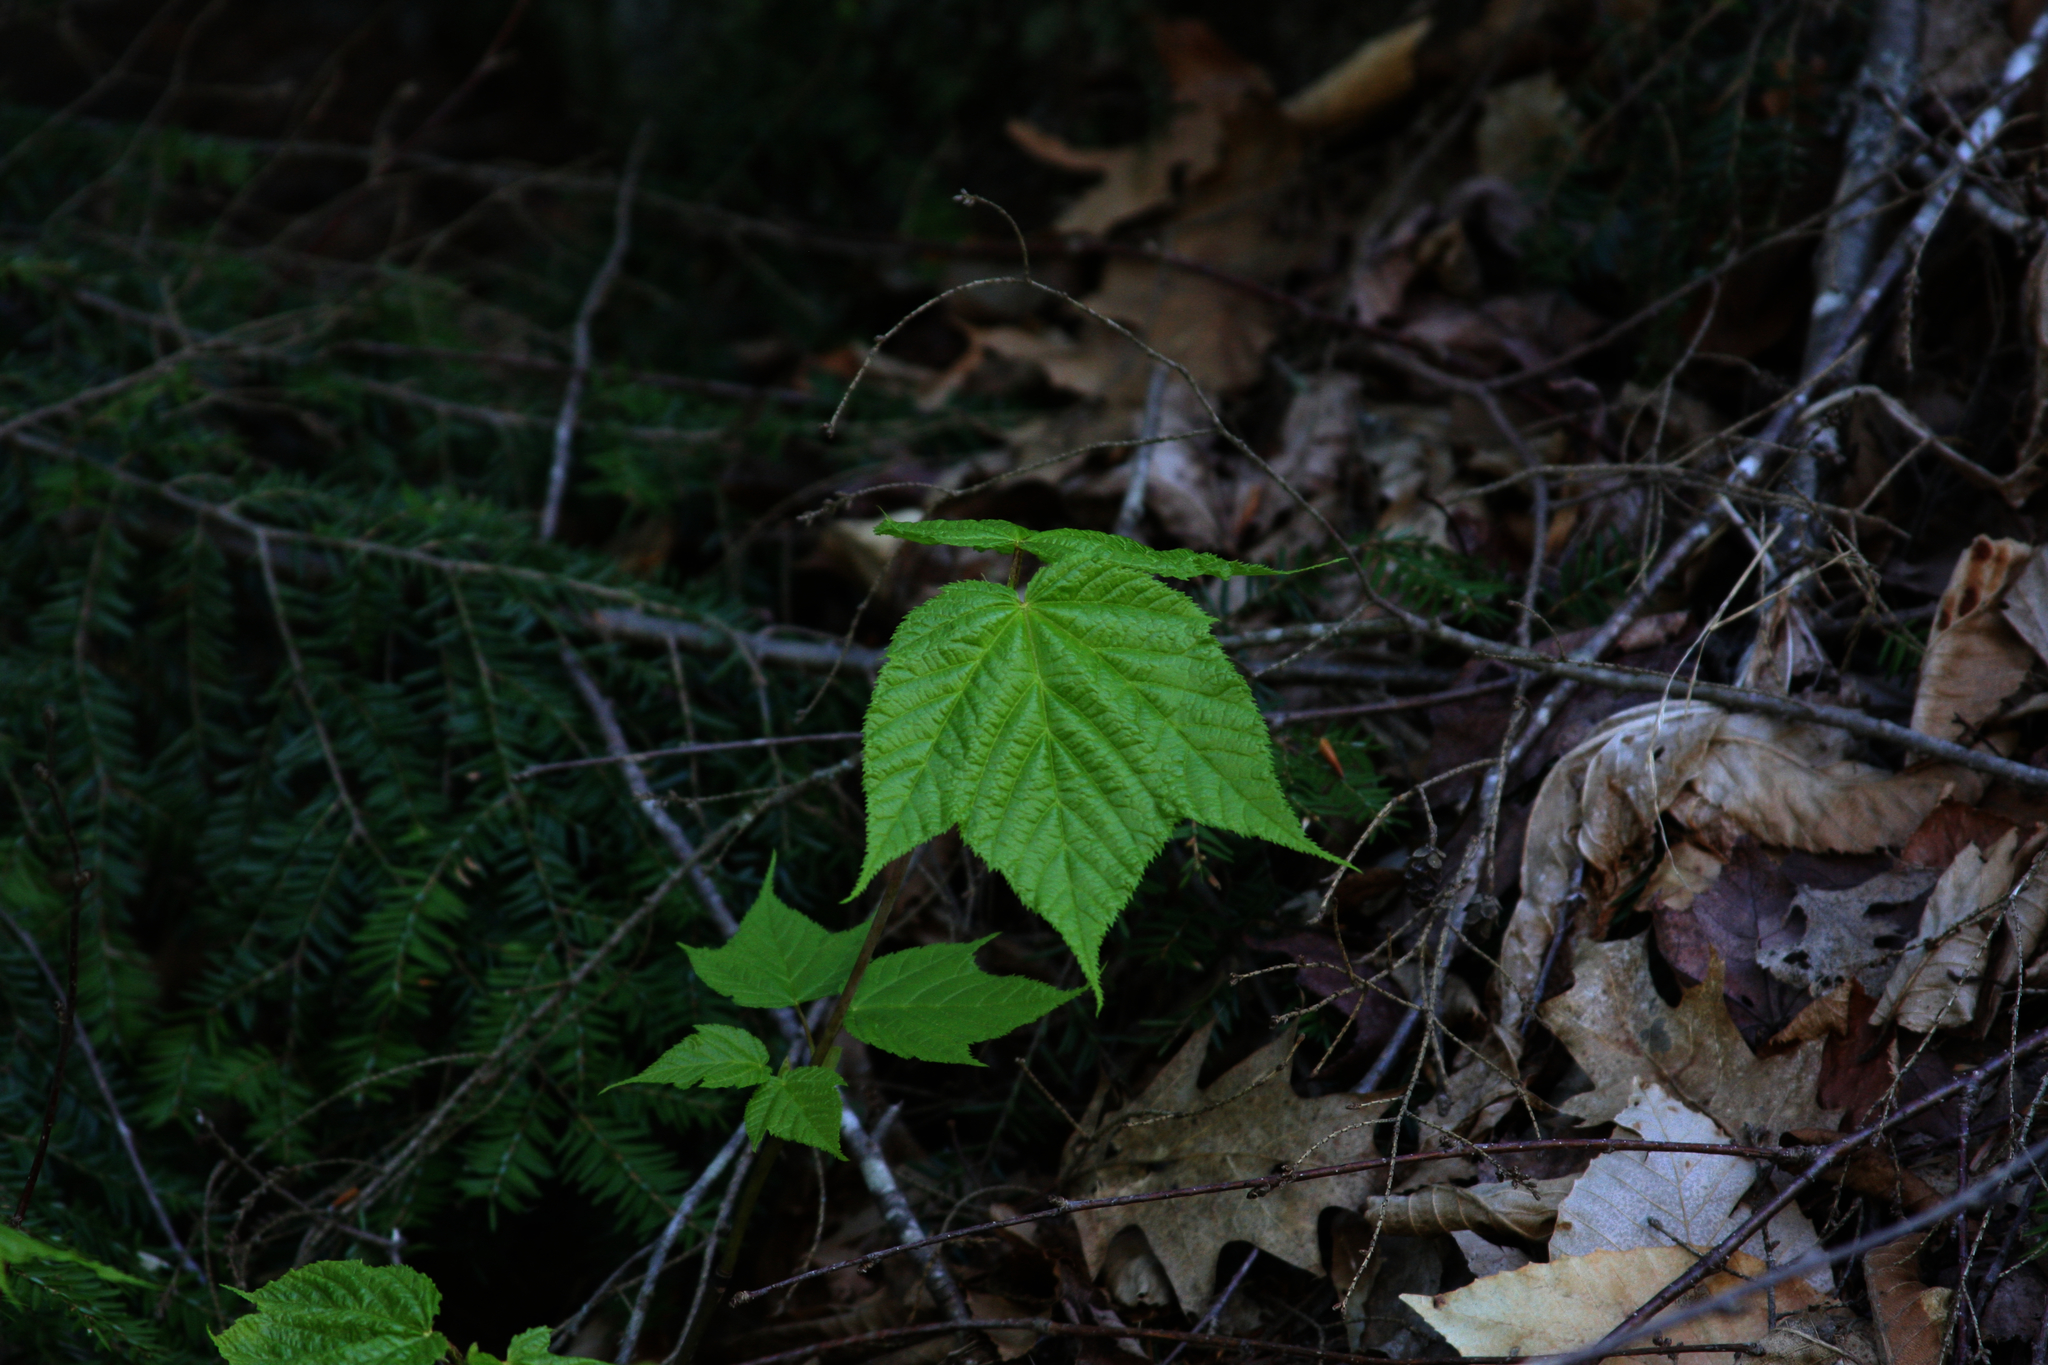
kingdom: Plantae
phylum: Tracheophyta
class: Magnoliopsida
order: Sapindales
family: Sapindaceae
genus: Acer
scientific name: Acer pensylvanicum
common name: Moosewood
